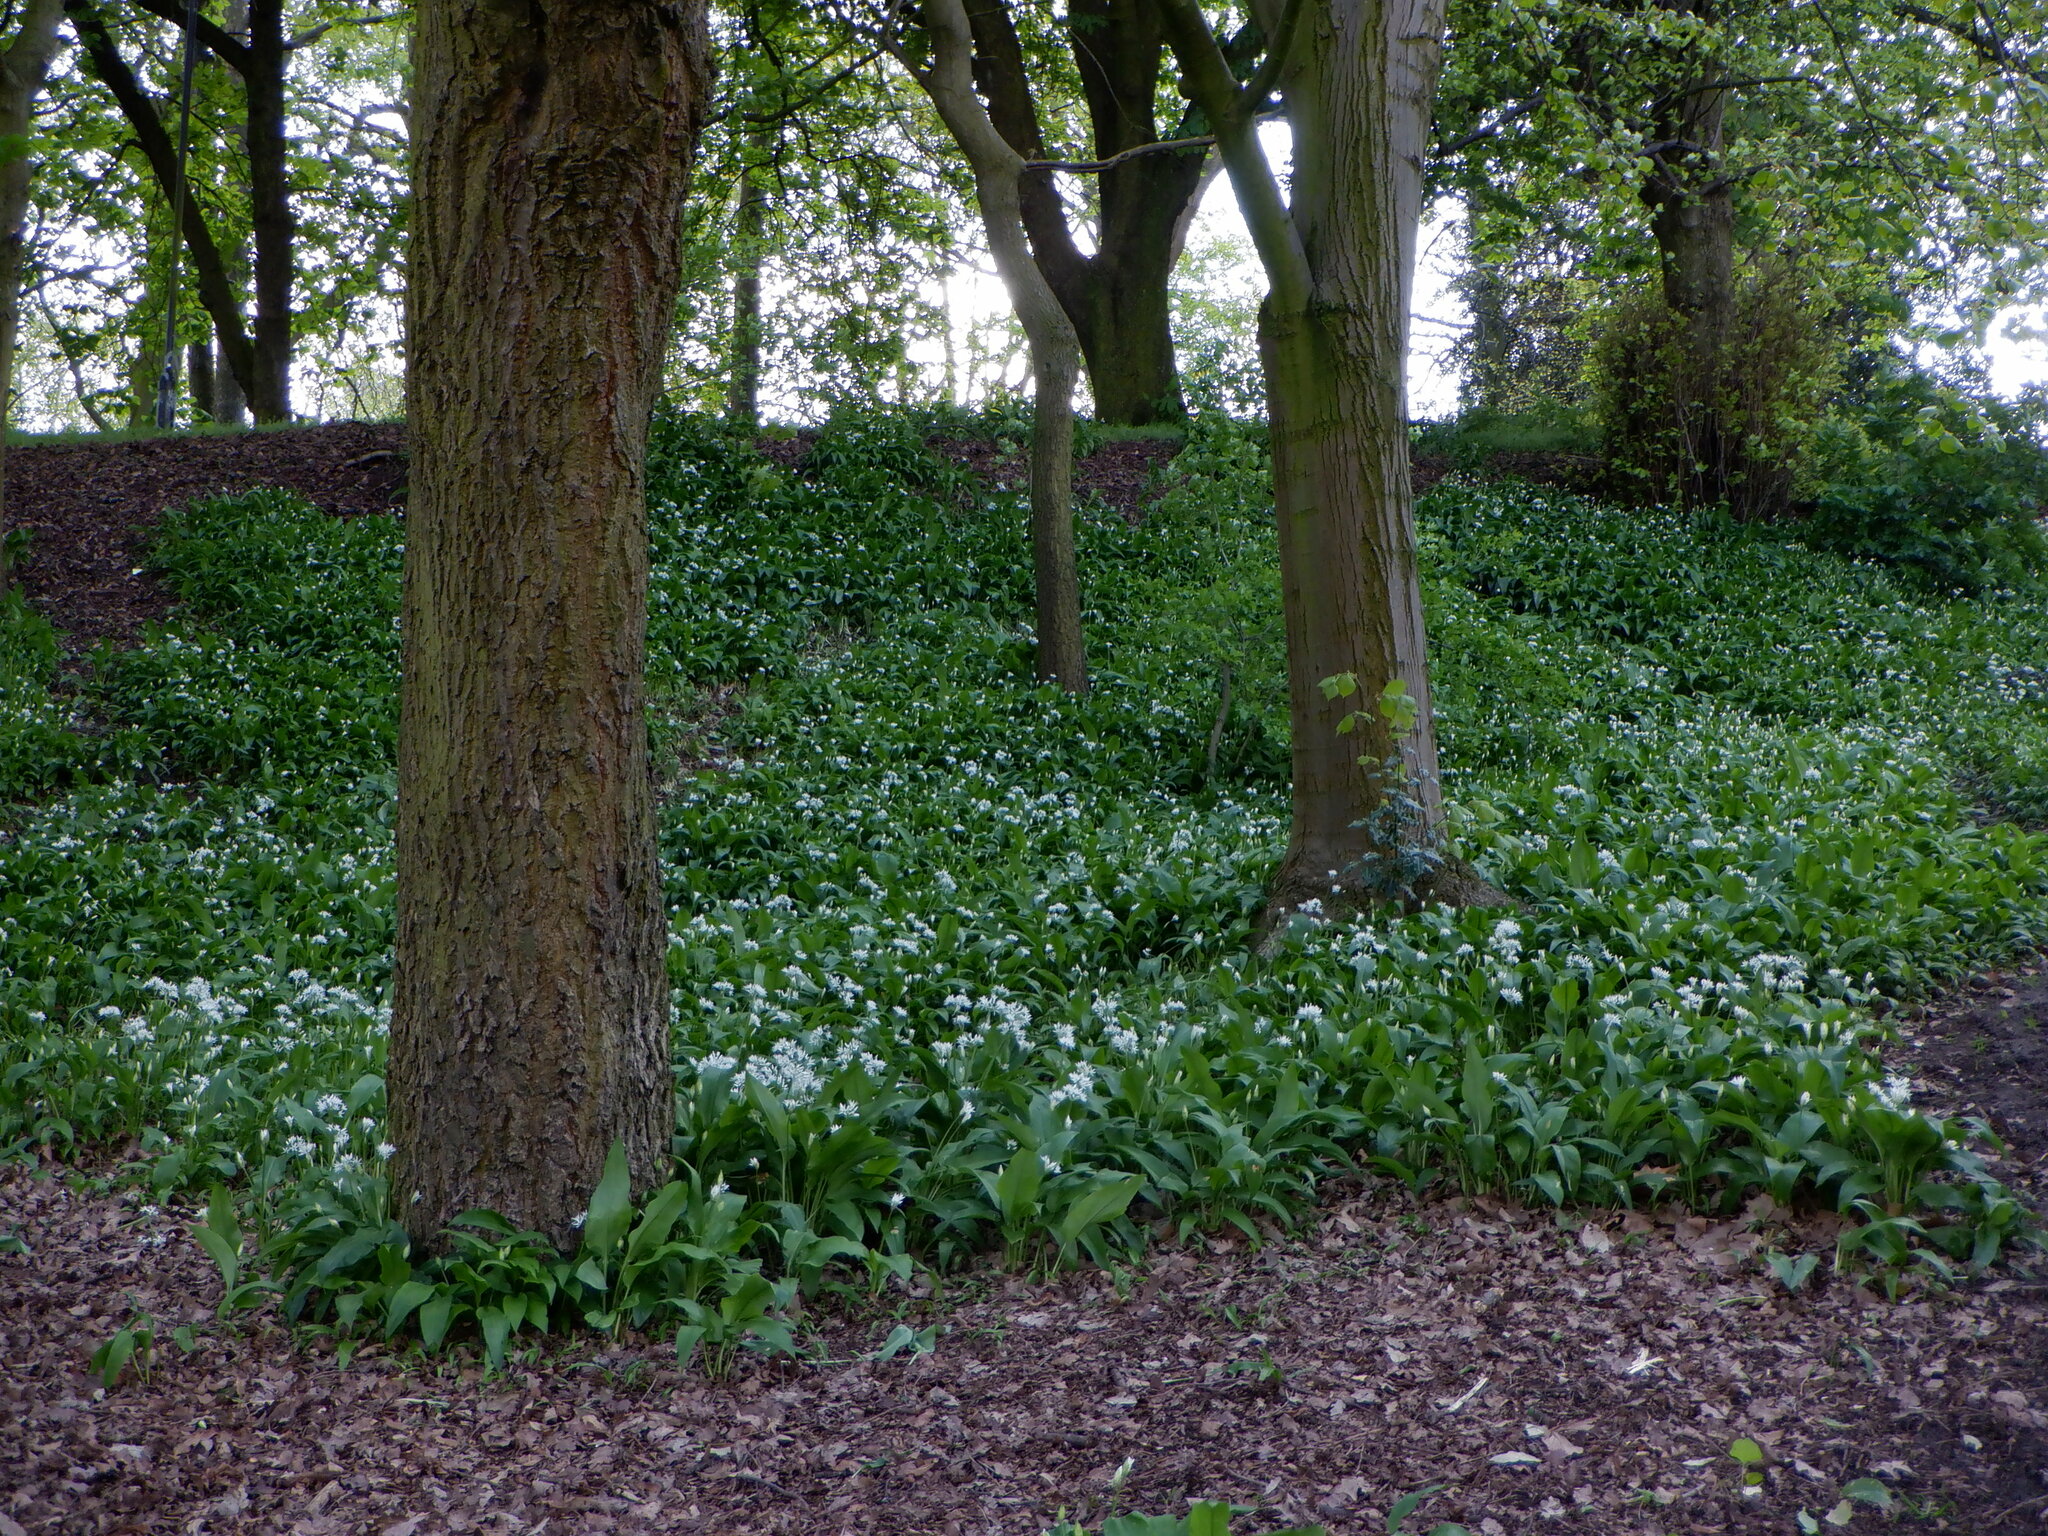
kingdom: Plantae
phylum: Tracheophyta
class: Liliopsida
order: Asparagales
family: Amaryllidaceae
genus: Allium
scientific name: Allium ursinum
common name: Ramsons
